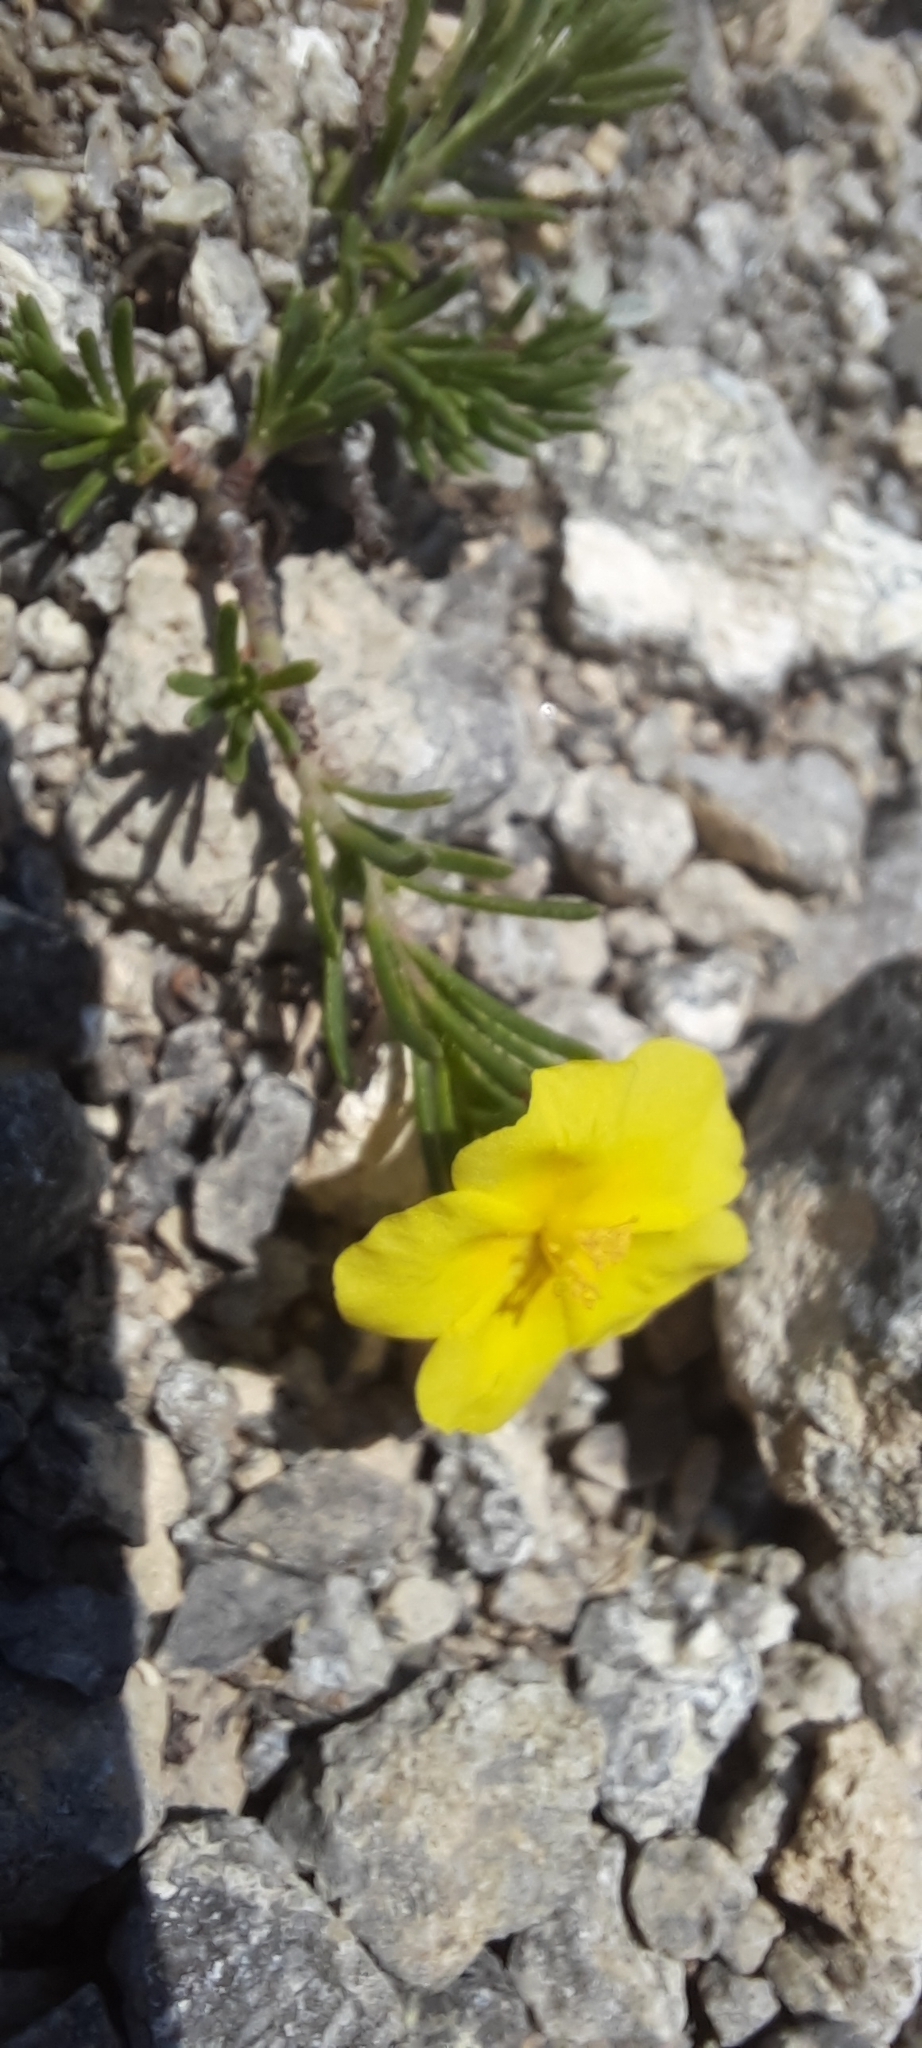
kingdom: Plantae
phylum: Tracheophyta
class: Magnoliopsida
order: Malvales
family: Cistaceae
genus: Fumana
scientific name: Fumana procumbens
